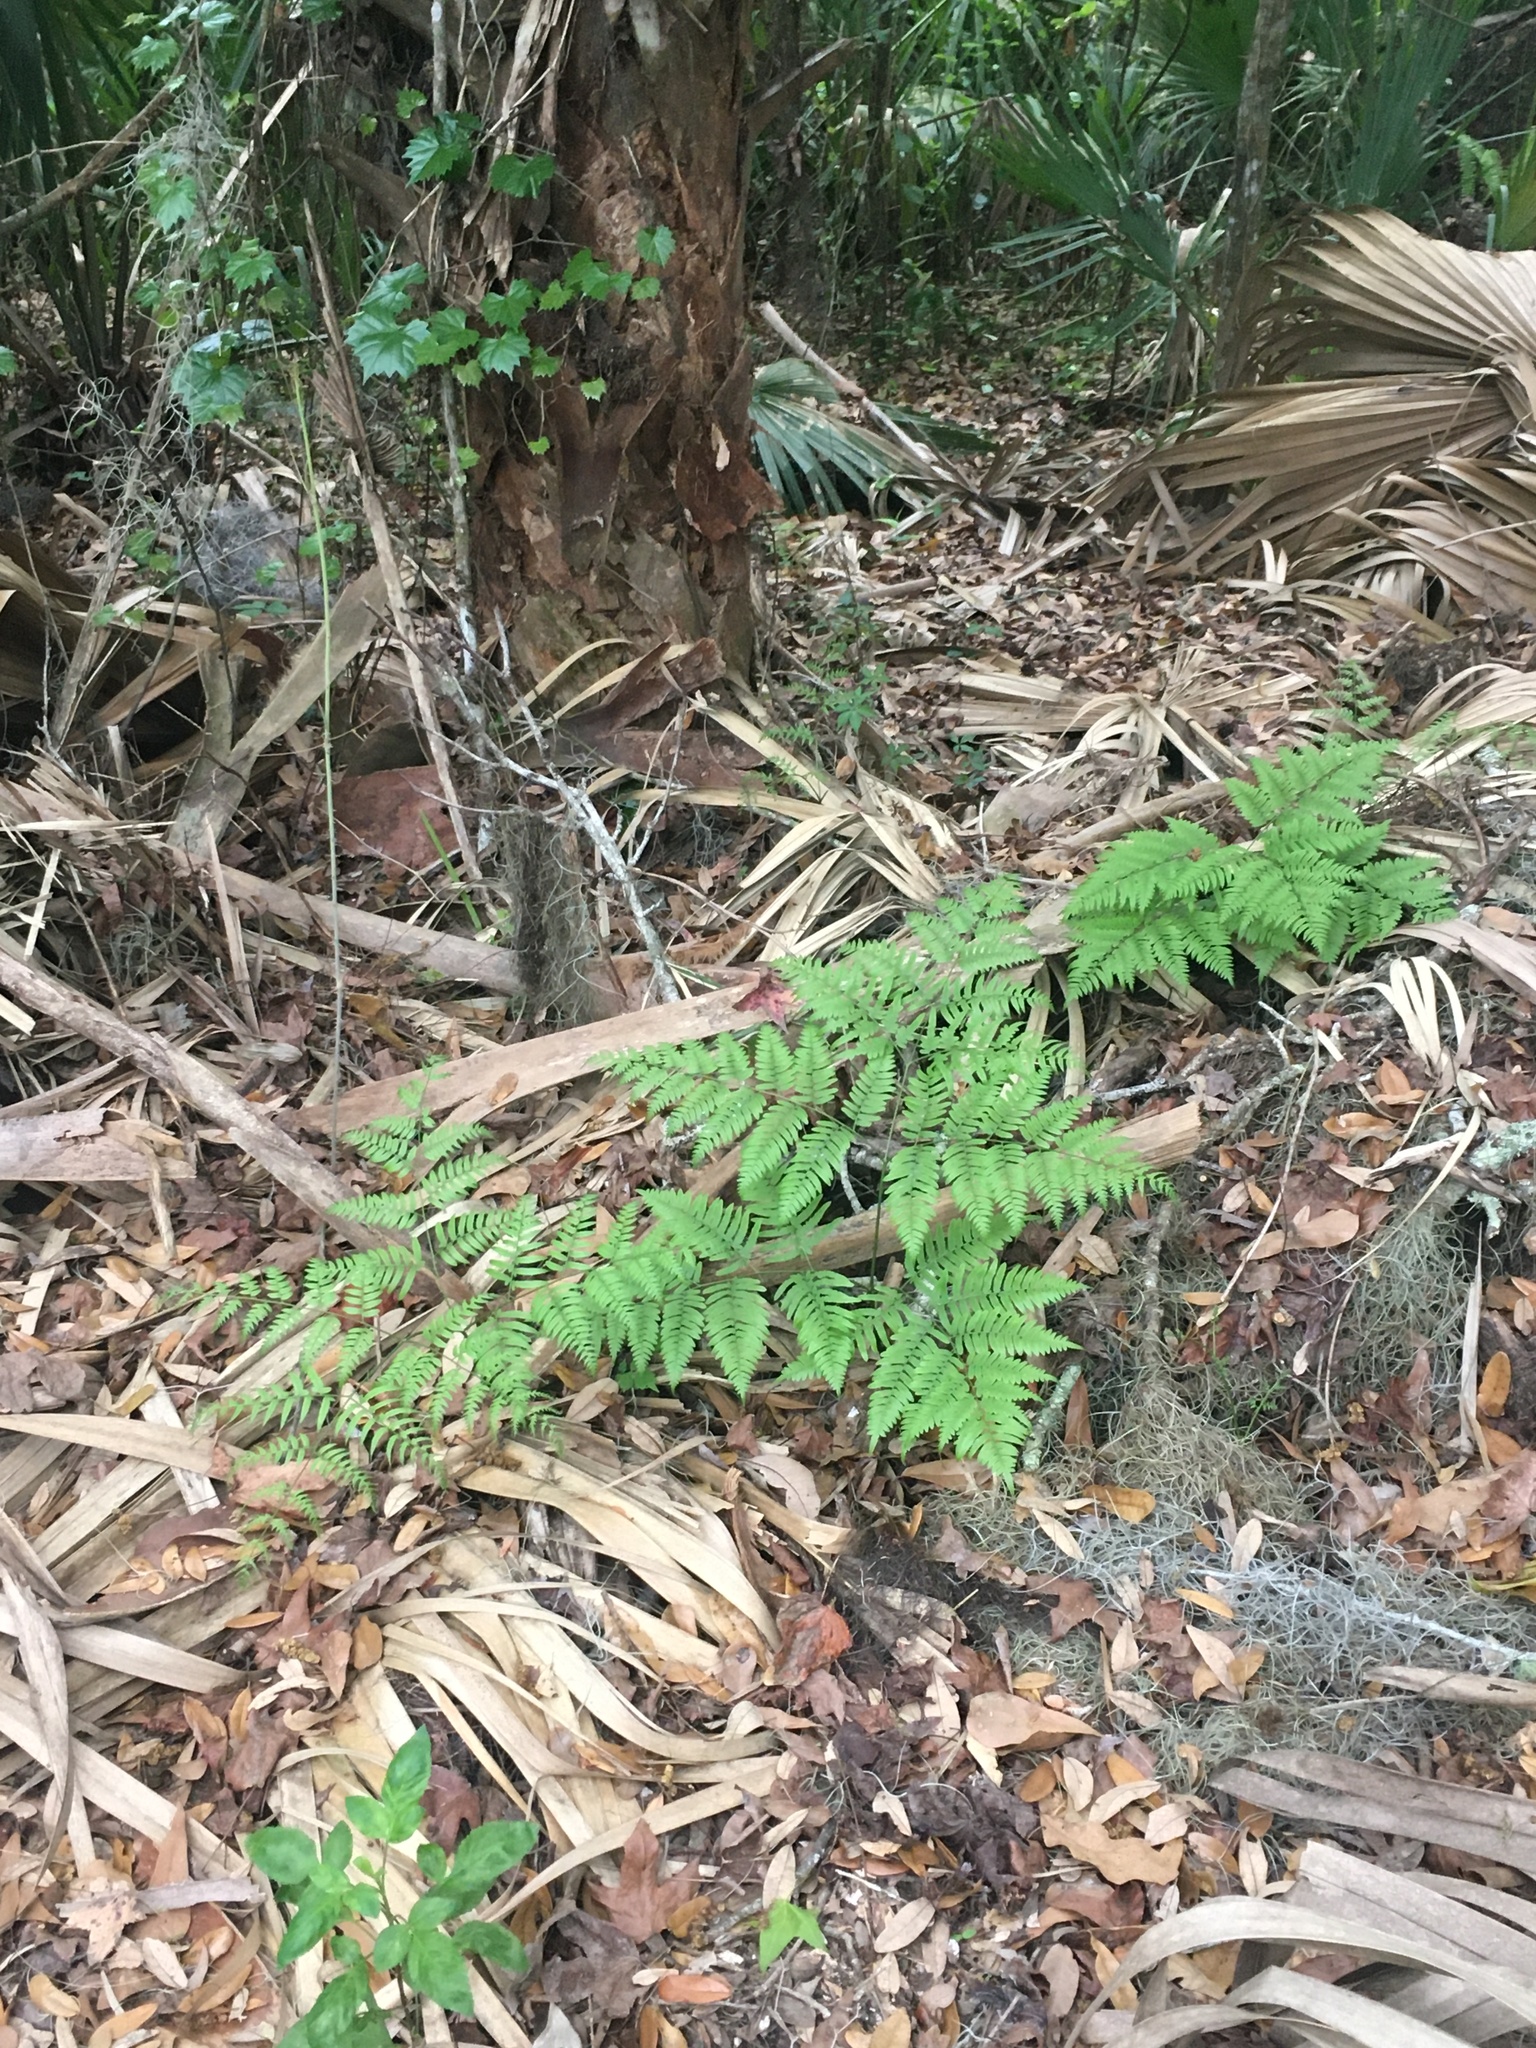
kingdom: Plantae
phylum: Tracheophyta
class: Polypodiopsida
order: Polypodiales
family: Dennstaedtiaceae
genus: Pteridium
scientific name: Pteridium
